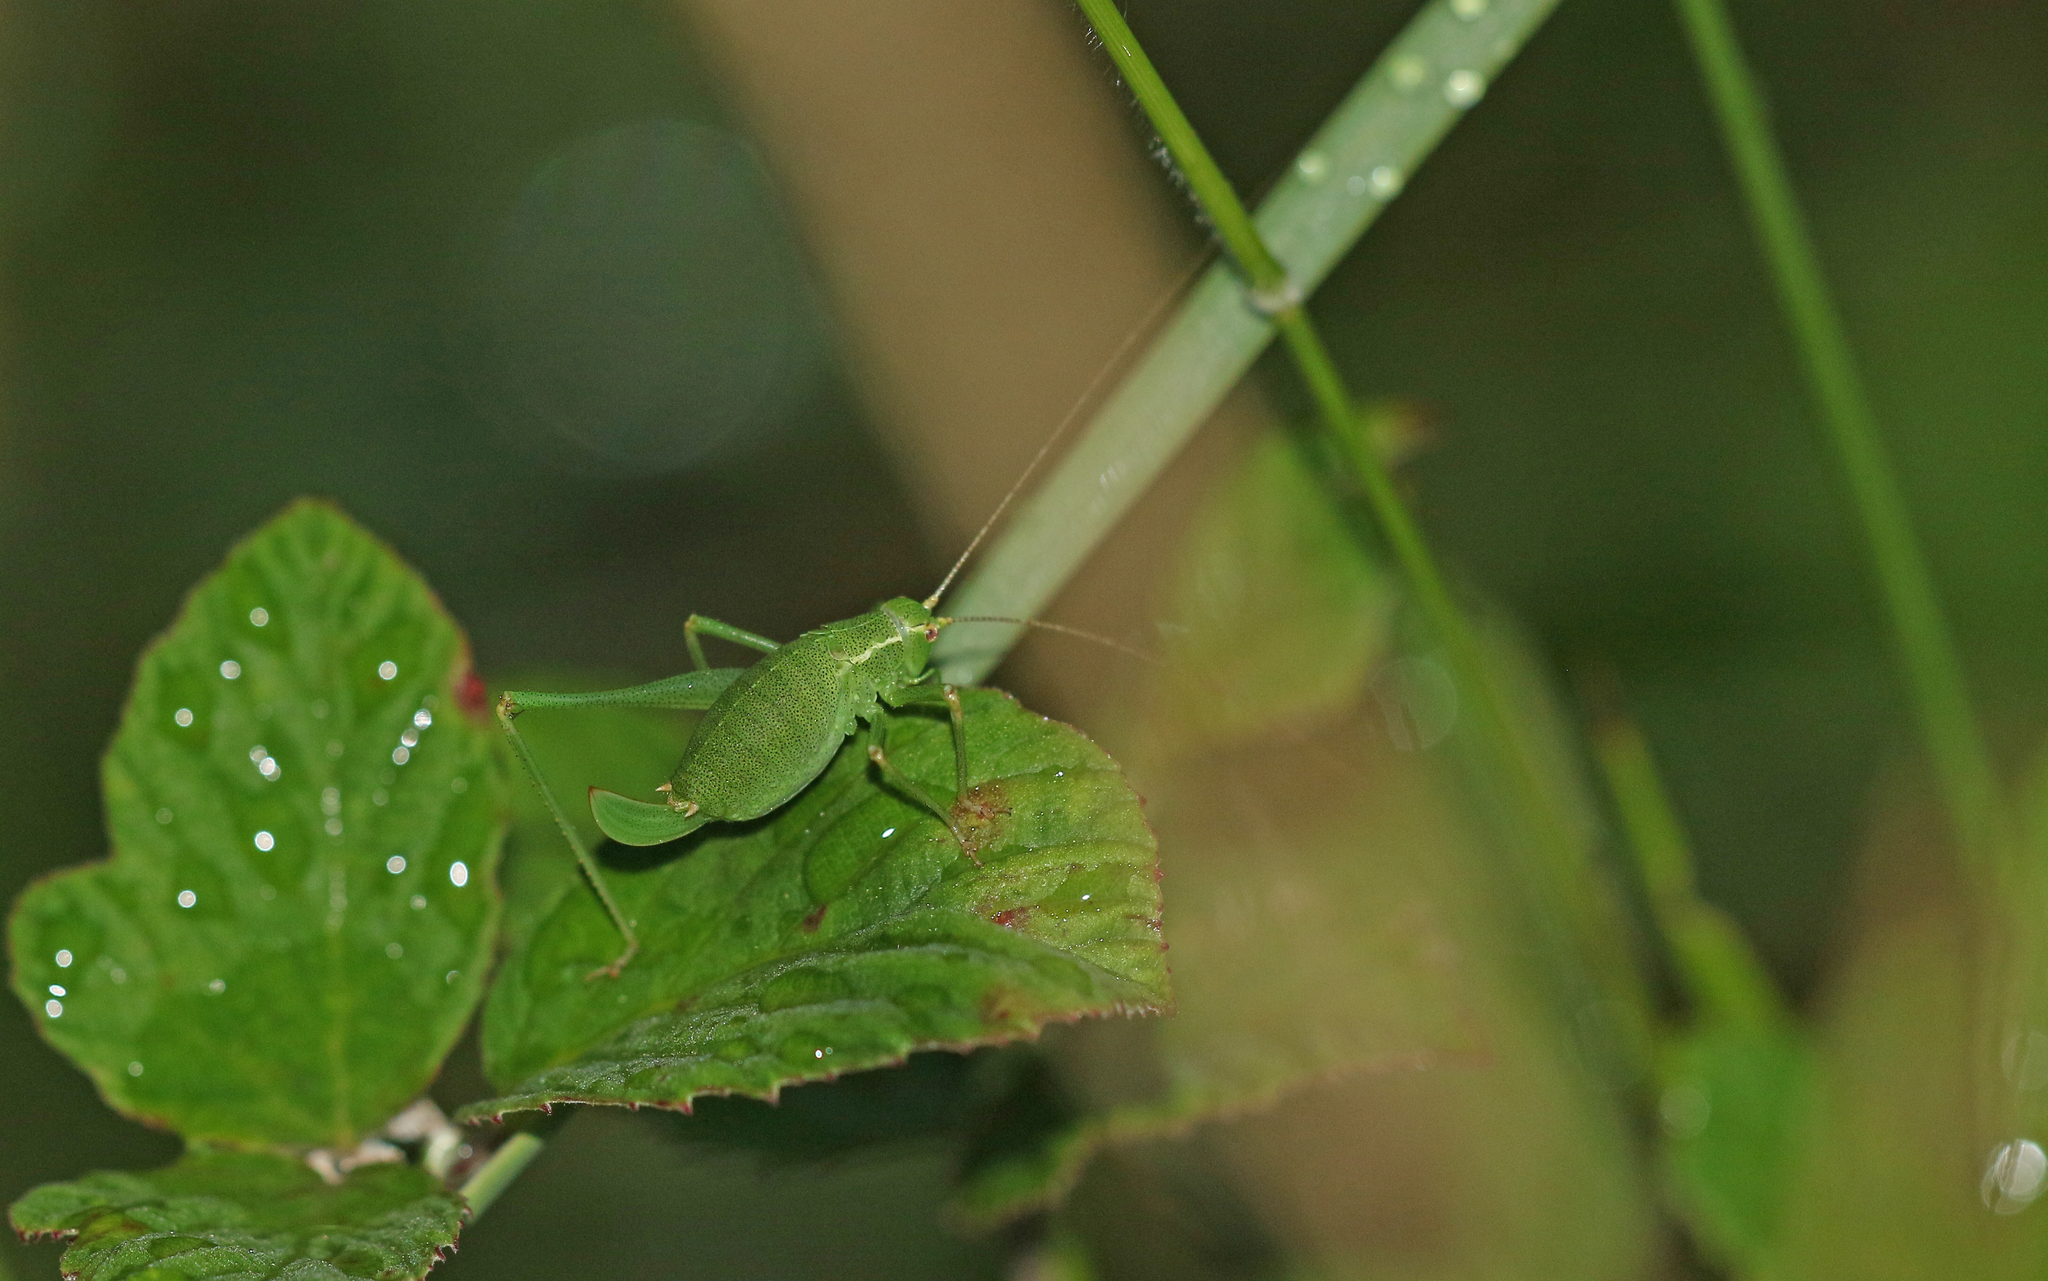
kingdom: Animalia
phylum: Arthropoda
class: Insecta
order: Orthoptera
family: Tettigoniidae
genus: Leptophyes
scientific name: Leptophyes punctatissima
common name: Speckled bush-cricket
